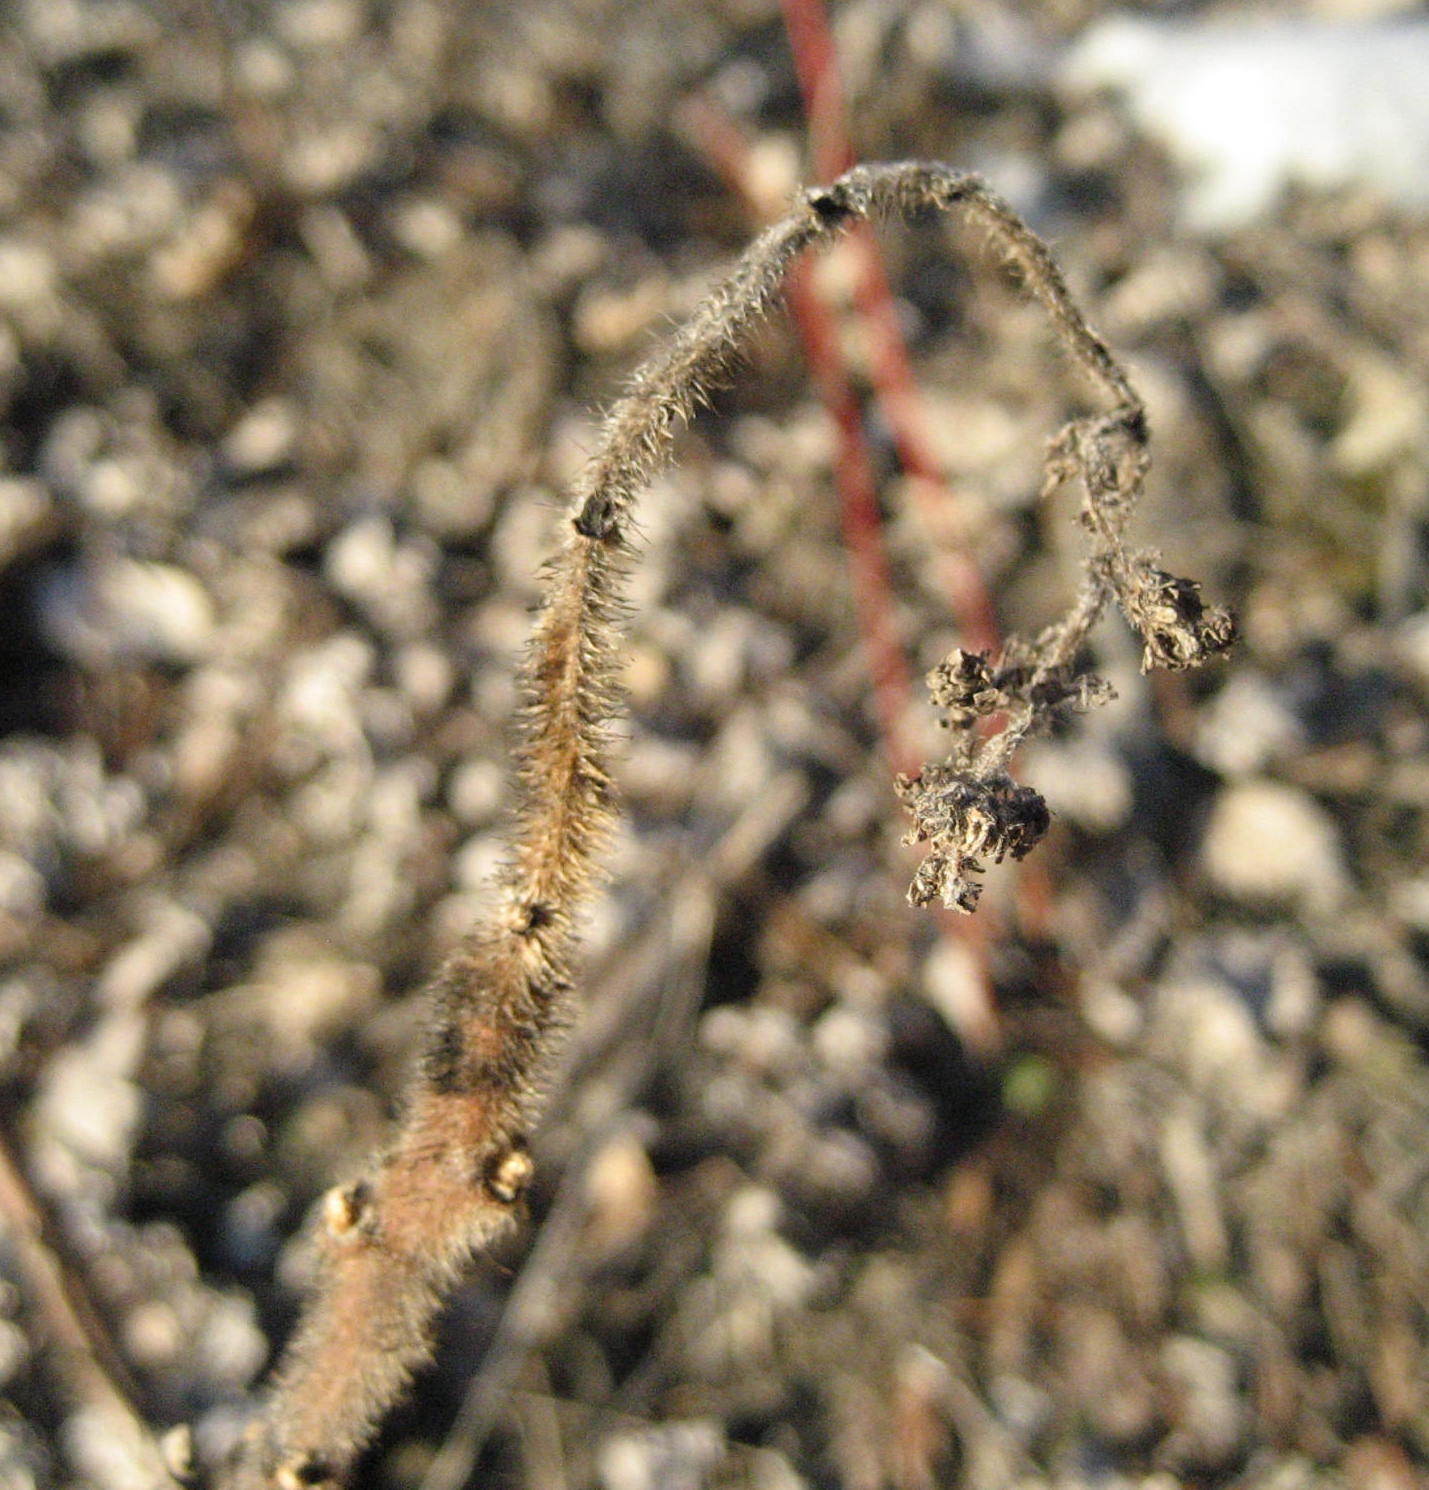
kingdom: Plantae
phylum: Tracheophyta
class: Magnoliopsida
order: Sapindales
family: Anacardiaceae
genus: Rhus
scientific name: Rhus typhina
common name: Staghorn sumac
